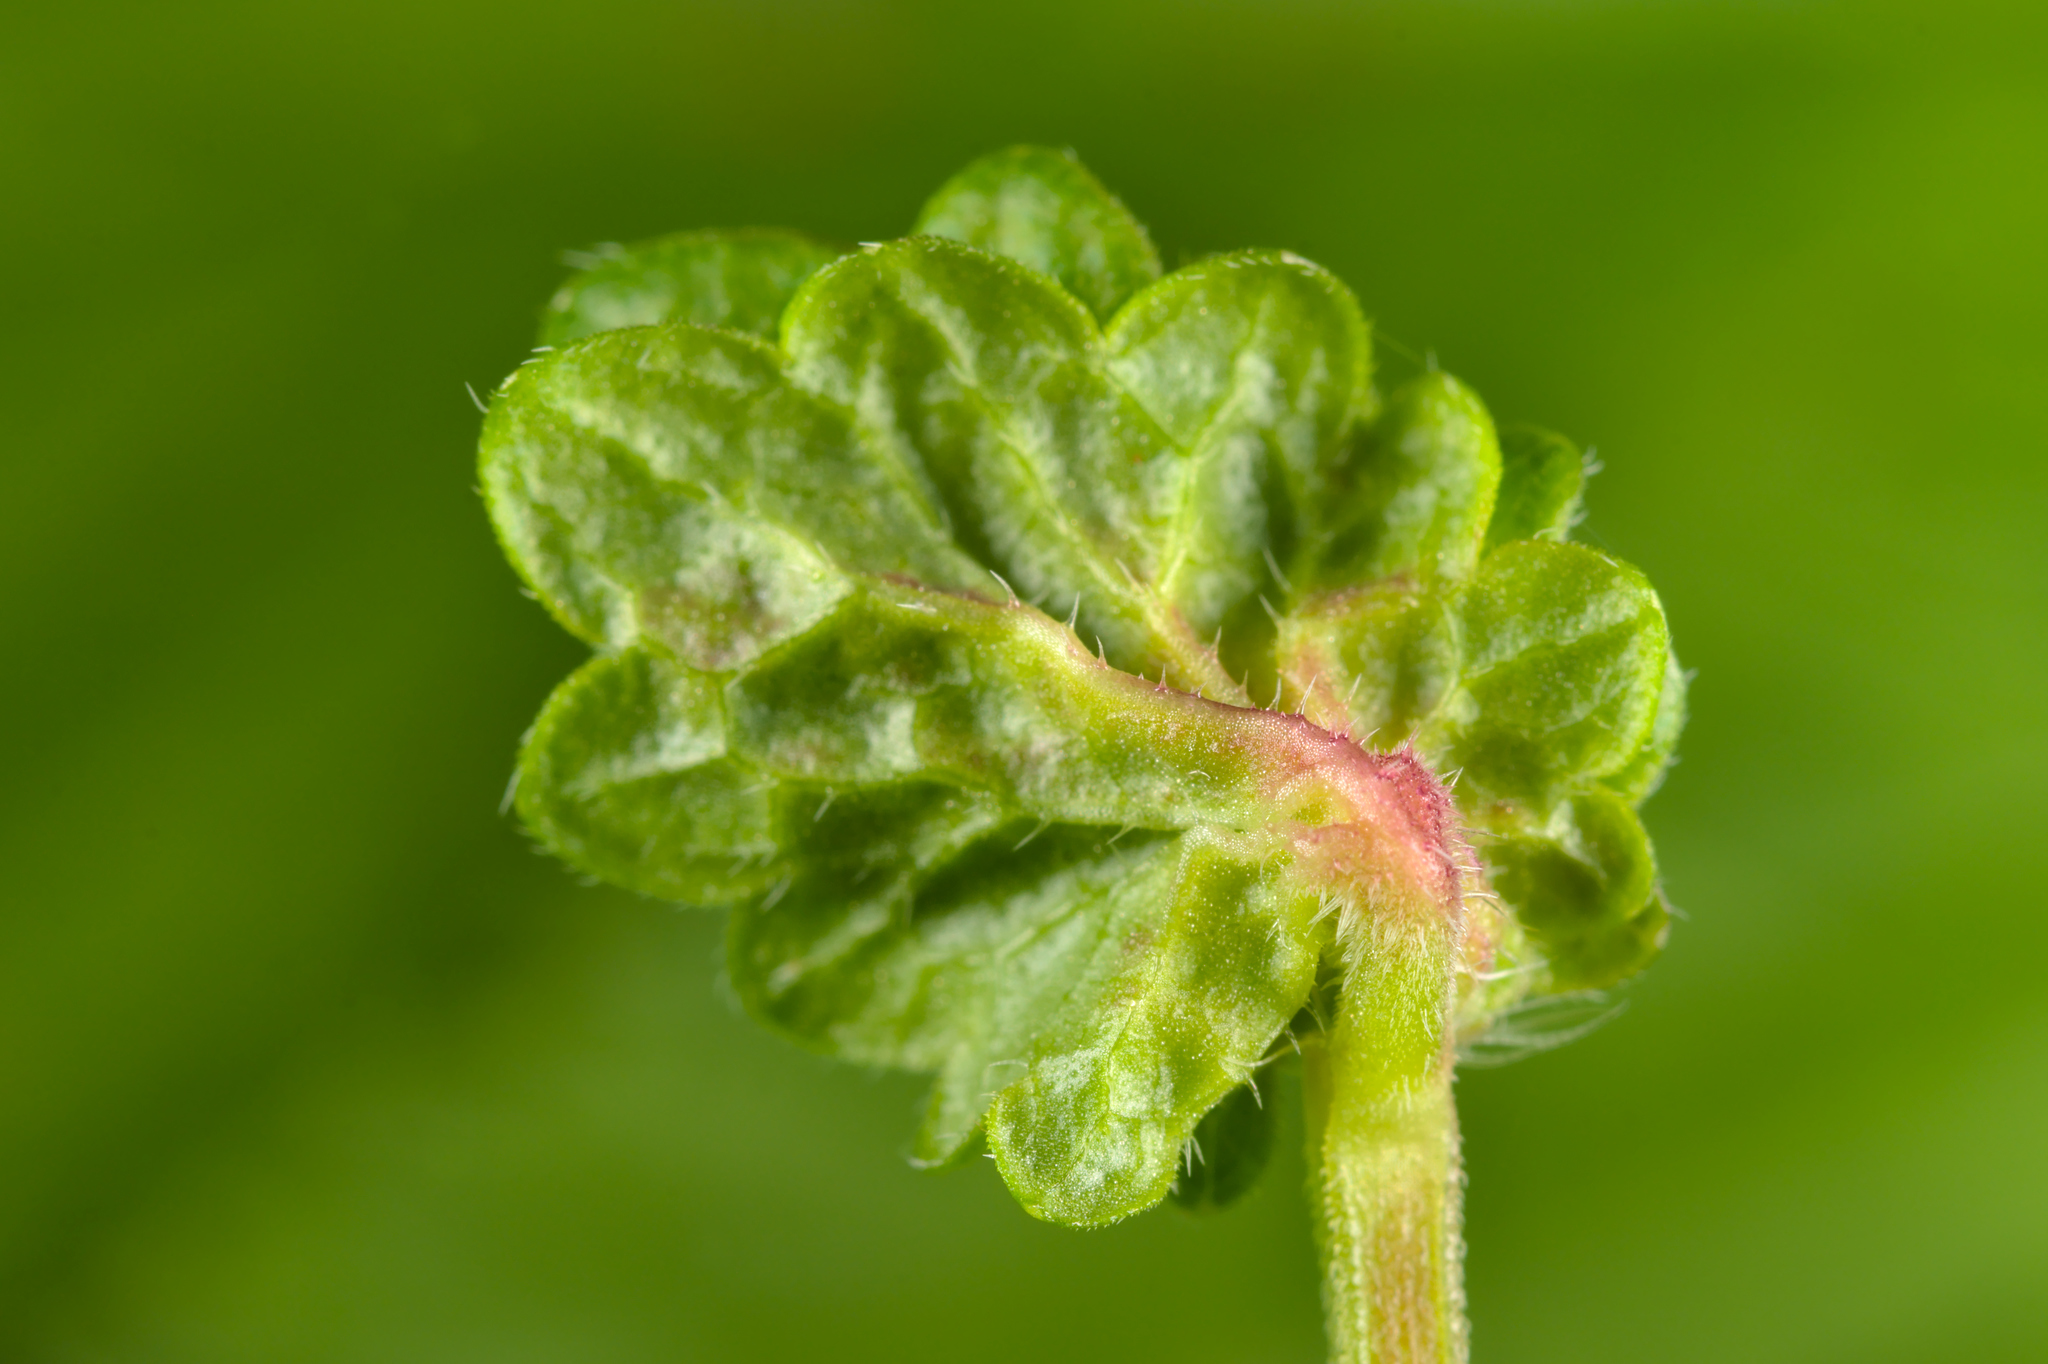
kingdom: Animalia
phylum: Arthropoda
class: Insecta
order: Diptera
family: Cecidomyiidae
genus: Dasineura
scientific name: Dasineura glechomae
